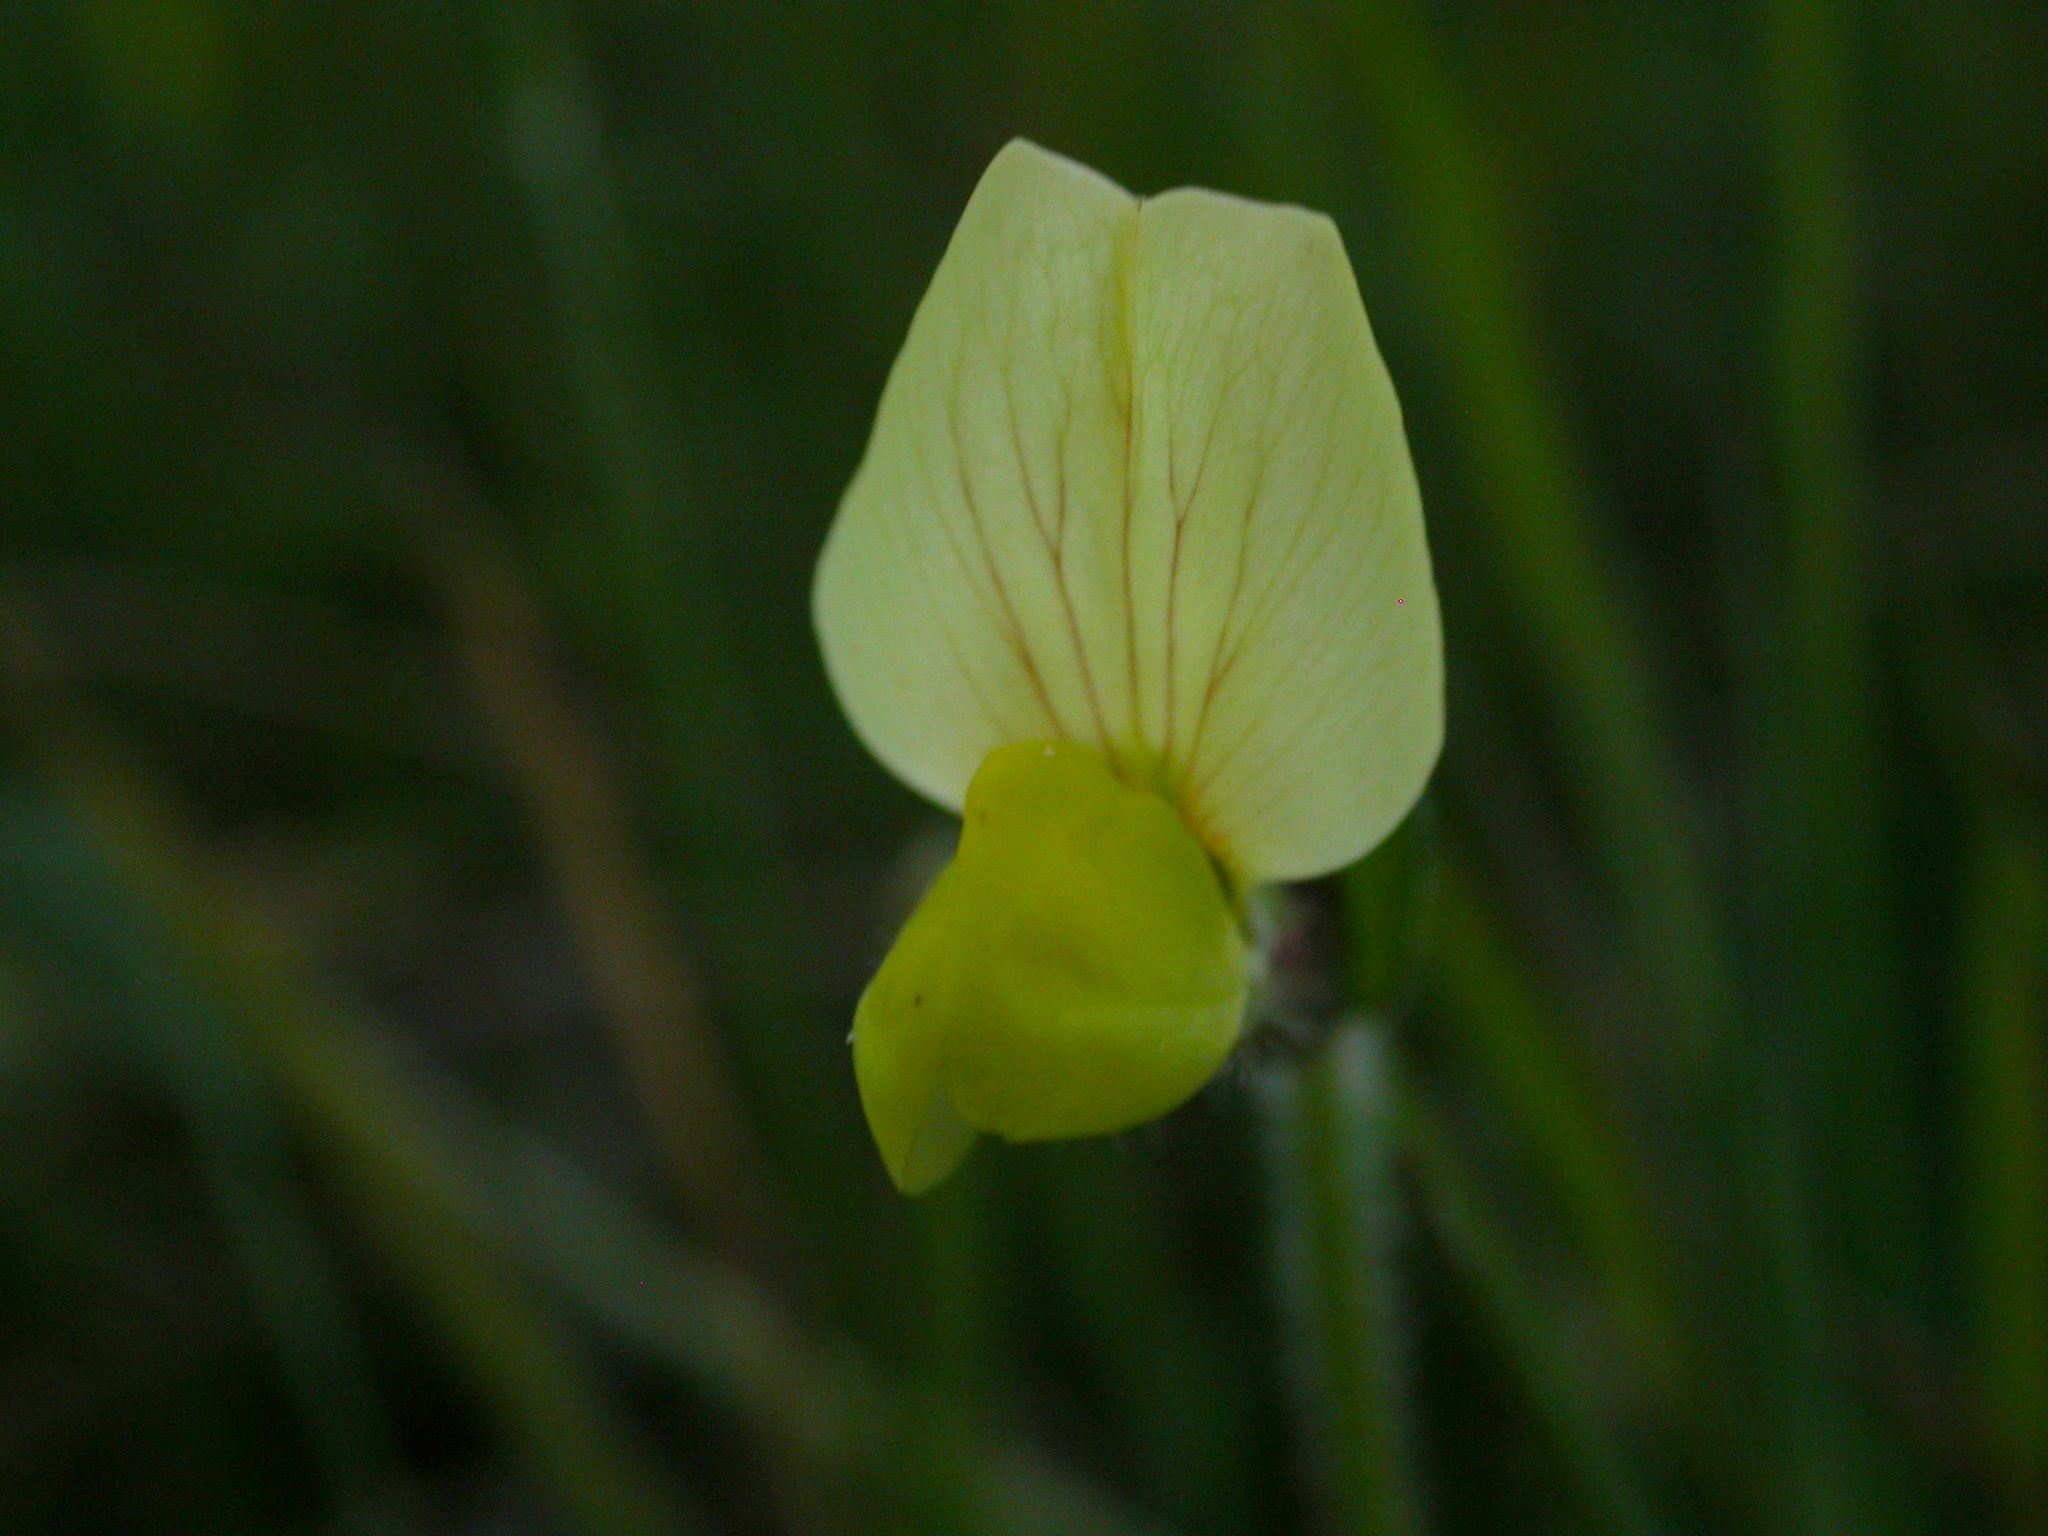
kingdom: Plantae
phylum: Tracheophyta
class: Magnoliopsida
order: Fabales
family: Fabaceae
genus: Lotus
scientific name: Lotus maritimus
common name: Dragon's-teeth
